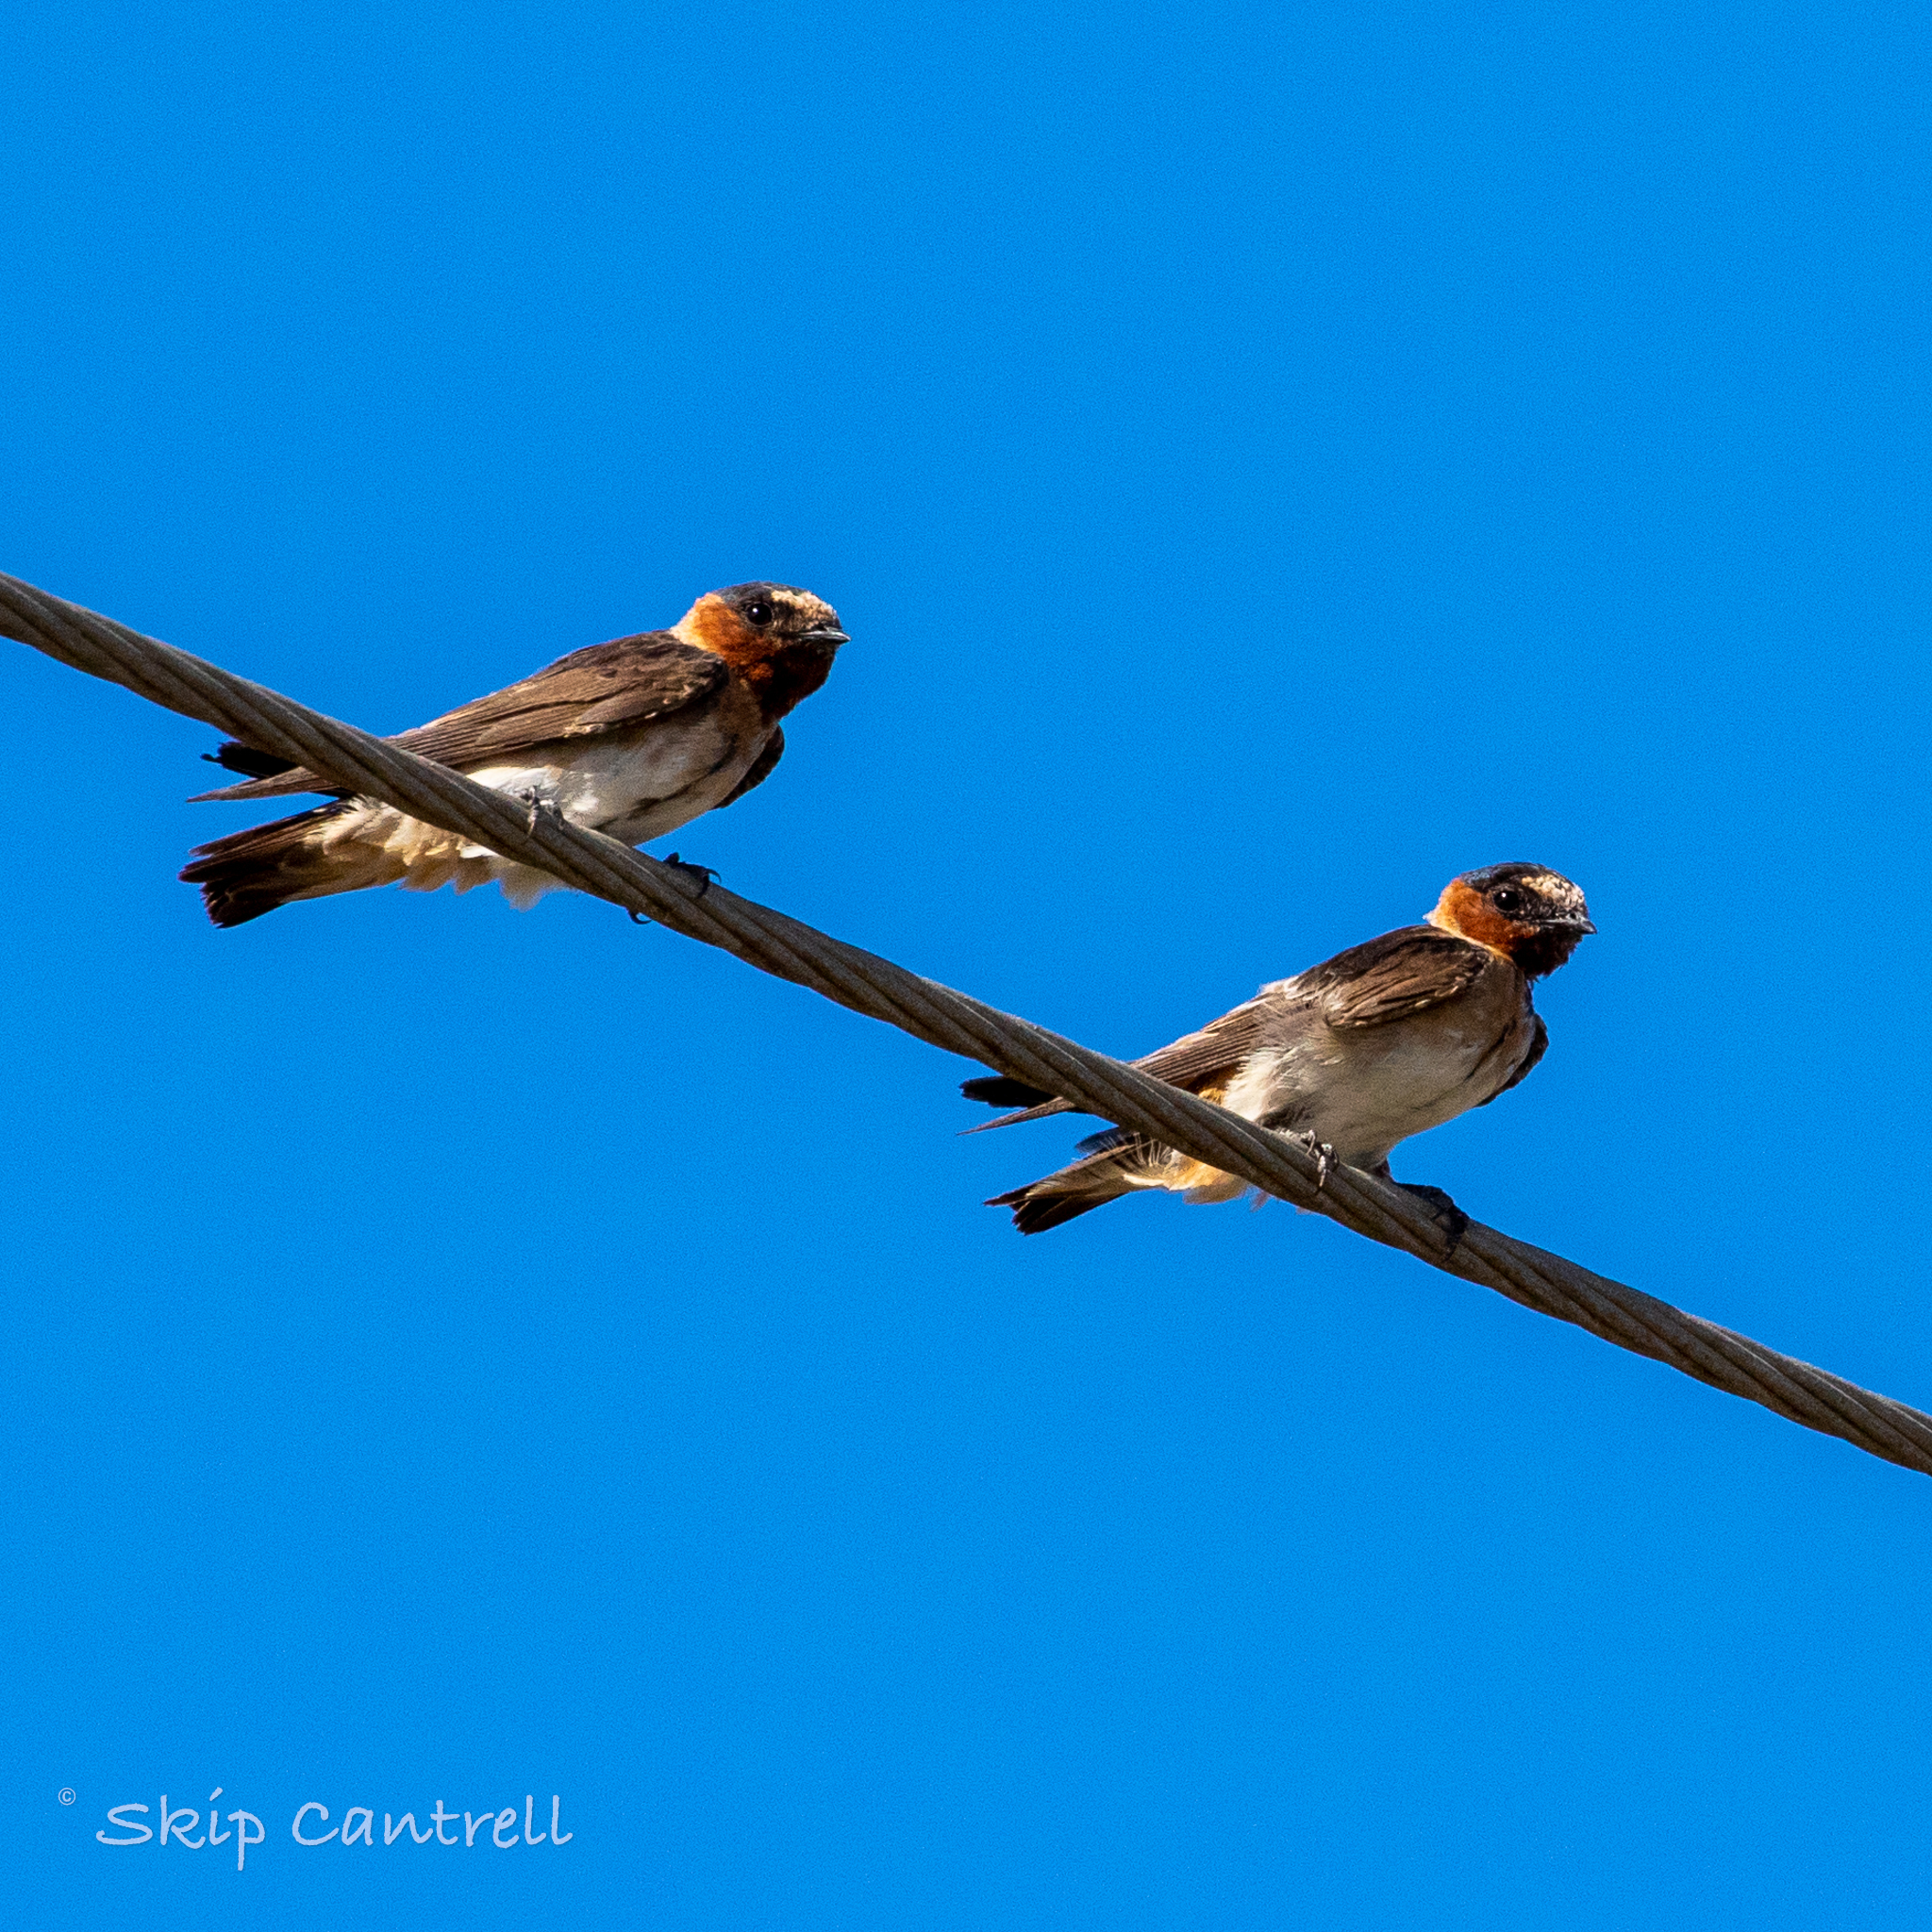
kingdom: Animalia
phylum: Chordata
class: Aves
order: Passeriformes
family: Hirundinidae
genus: Petrochelidon
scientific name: Petrochelidon pyrrhonota
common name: American cliff swallow
